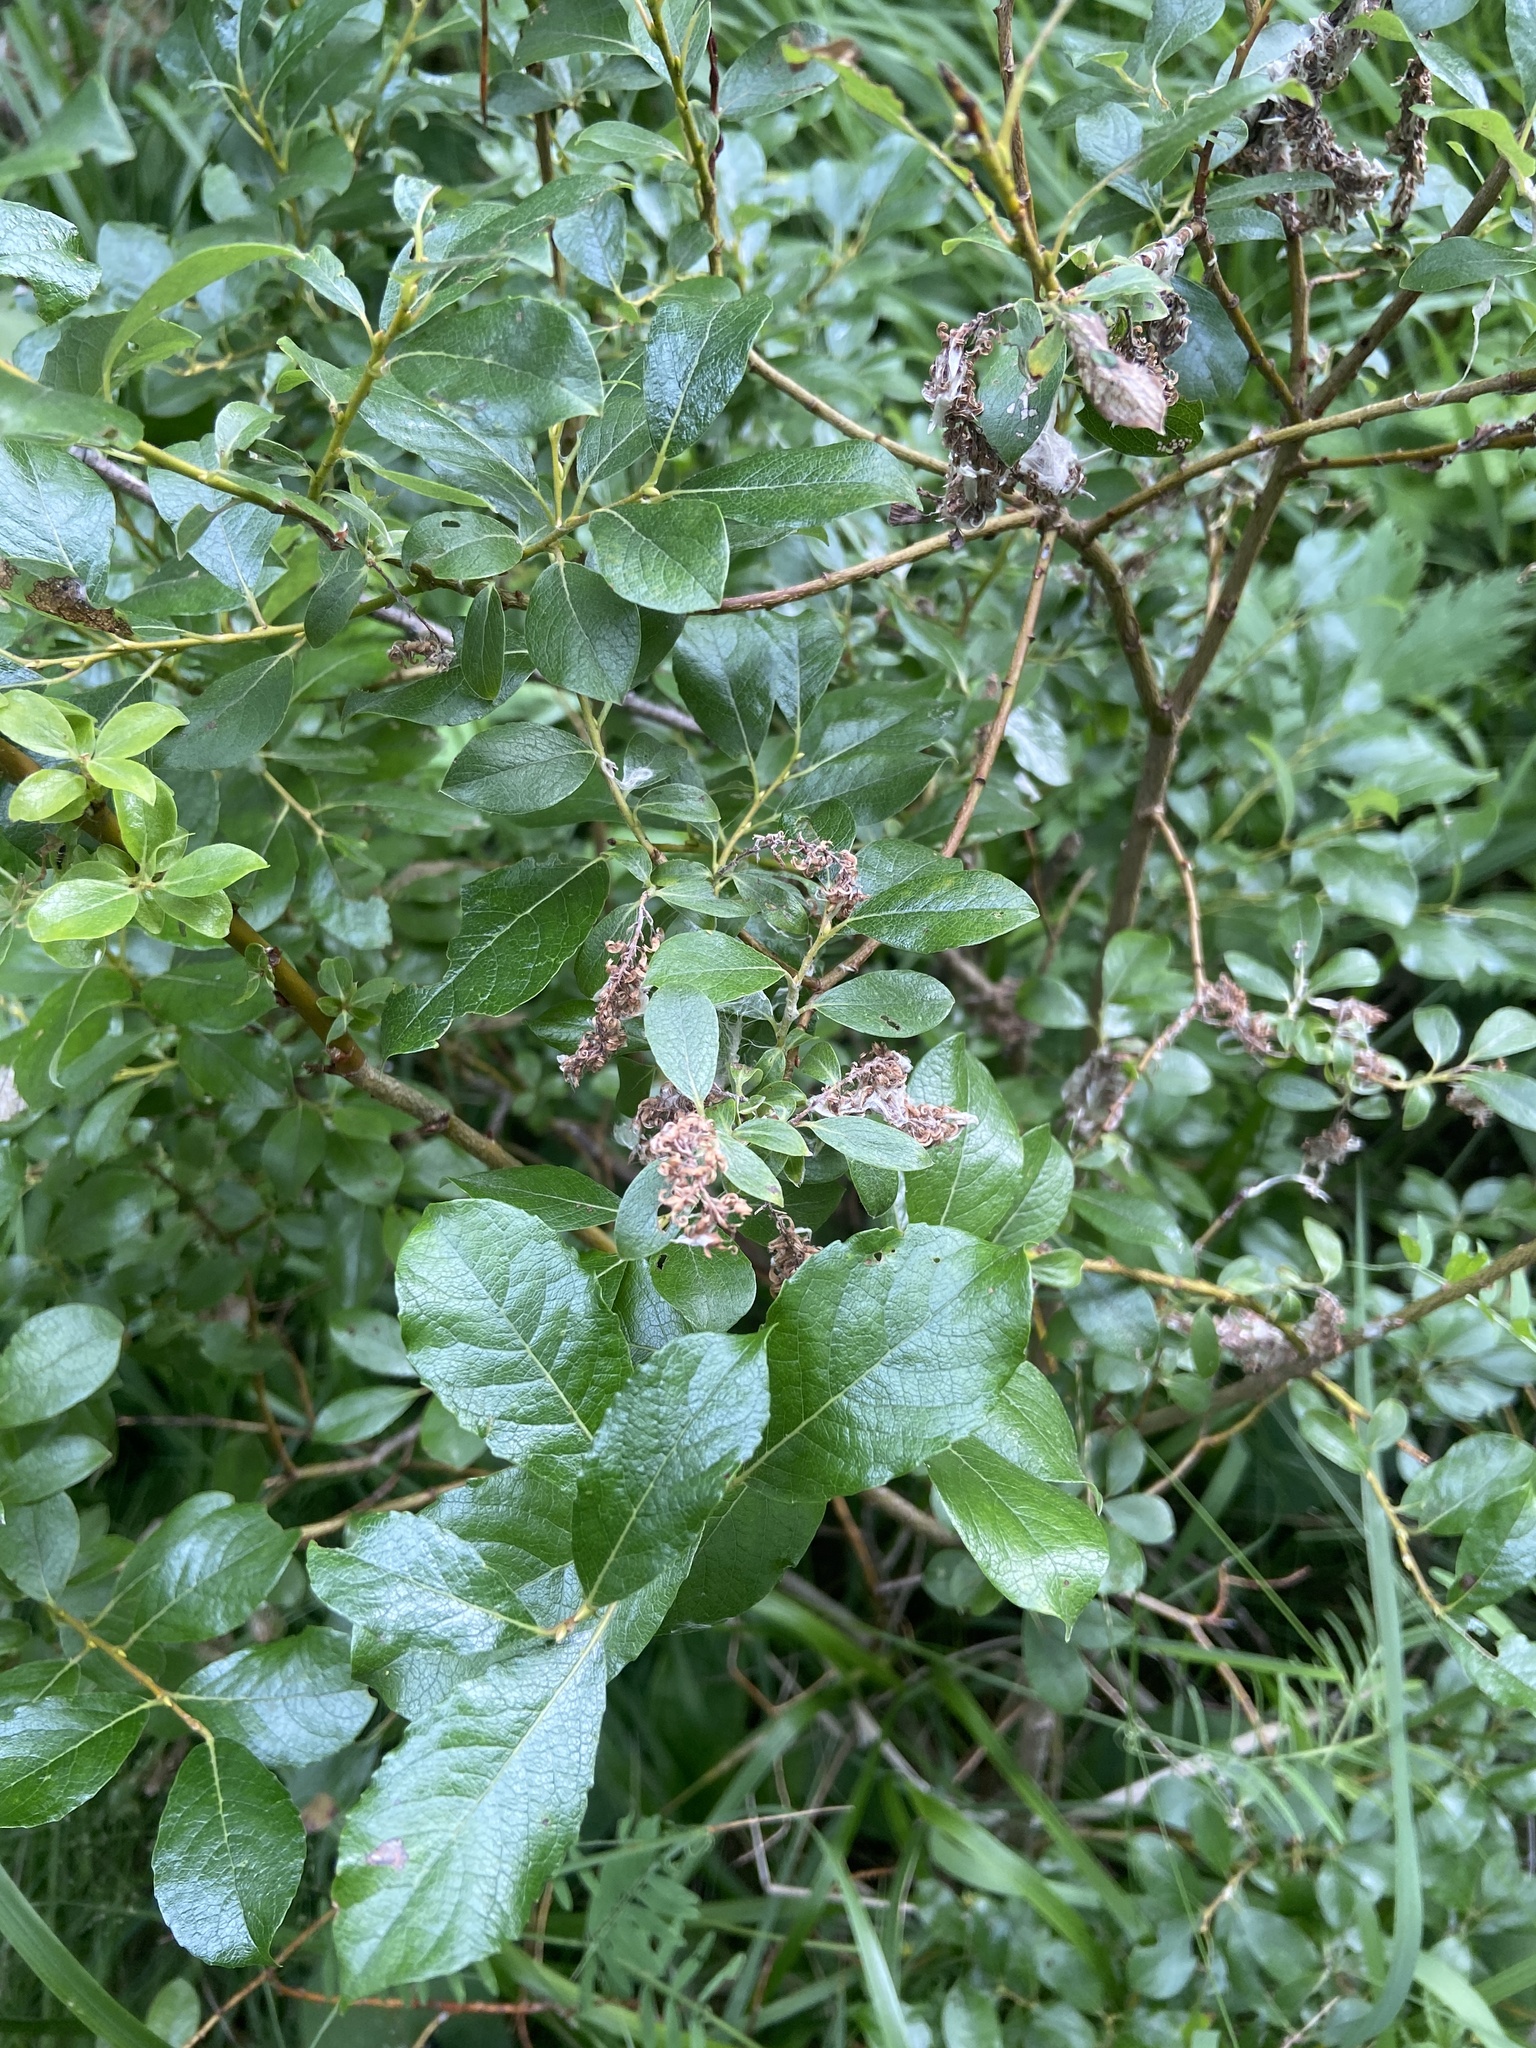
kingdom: Plantae
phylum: Tracheophyta
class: Magnoliopsida
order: Malpighiales
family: Salicaceae
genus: Salix
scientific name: Salix myrsinifolia
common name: Dark-leaved willow
